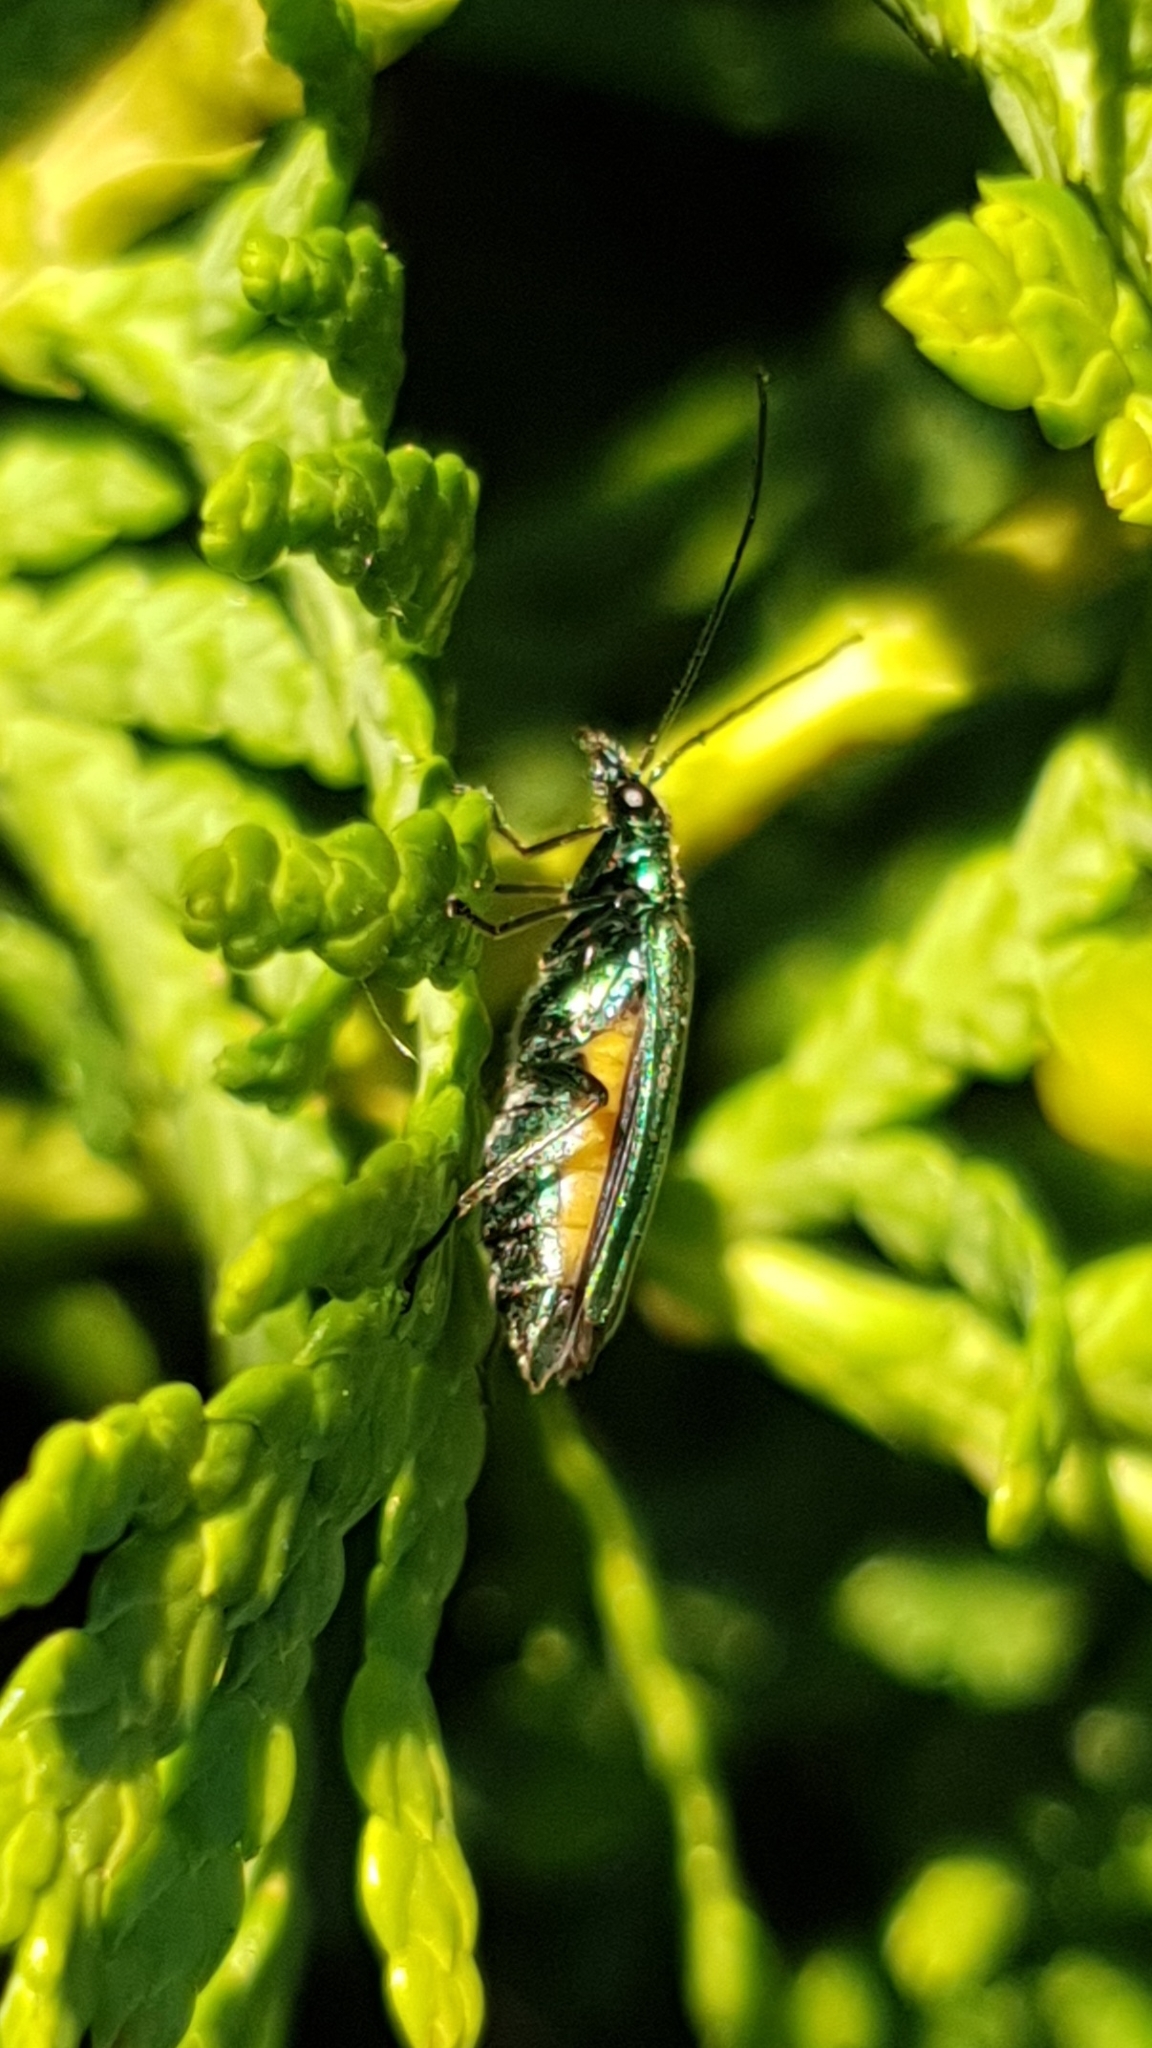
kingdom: Animalia
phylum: Arthropoda
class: Insecta
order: Coleoptera
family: Oedemeridae
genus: Oedemera
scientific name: Oedemera nobilis
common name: Swollen-thighed beetle
